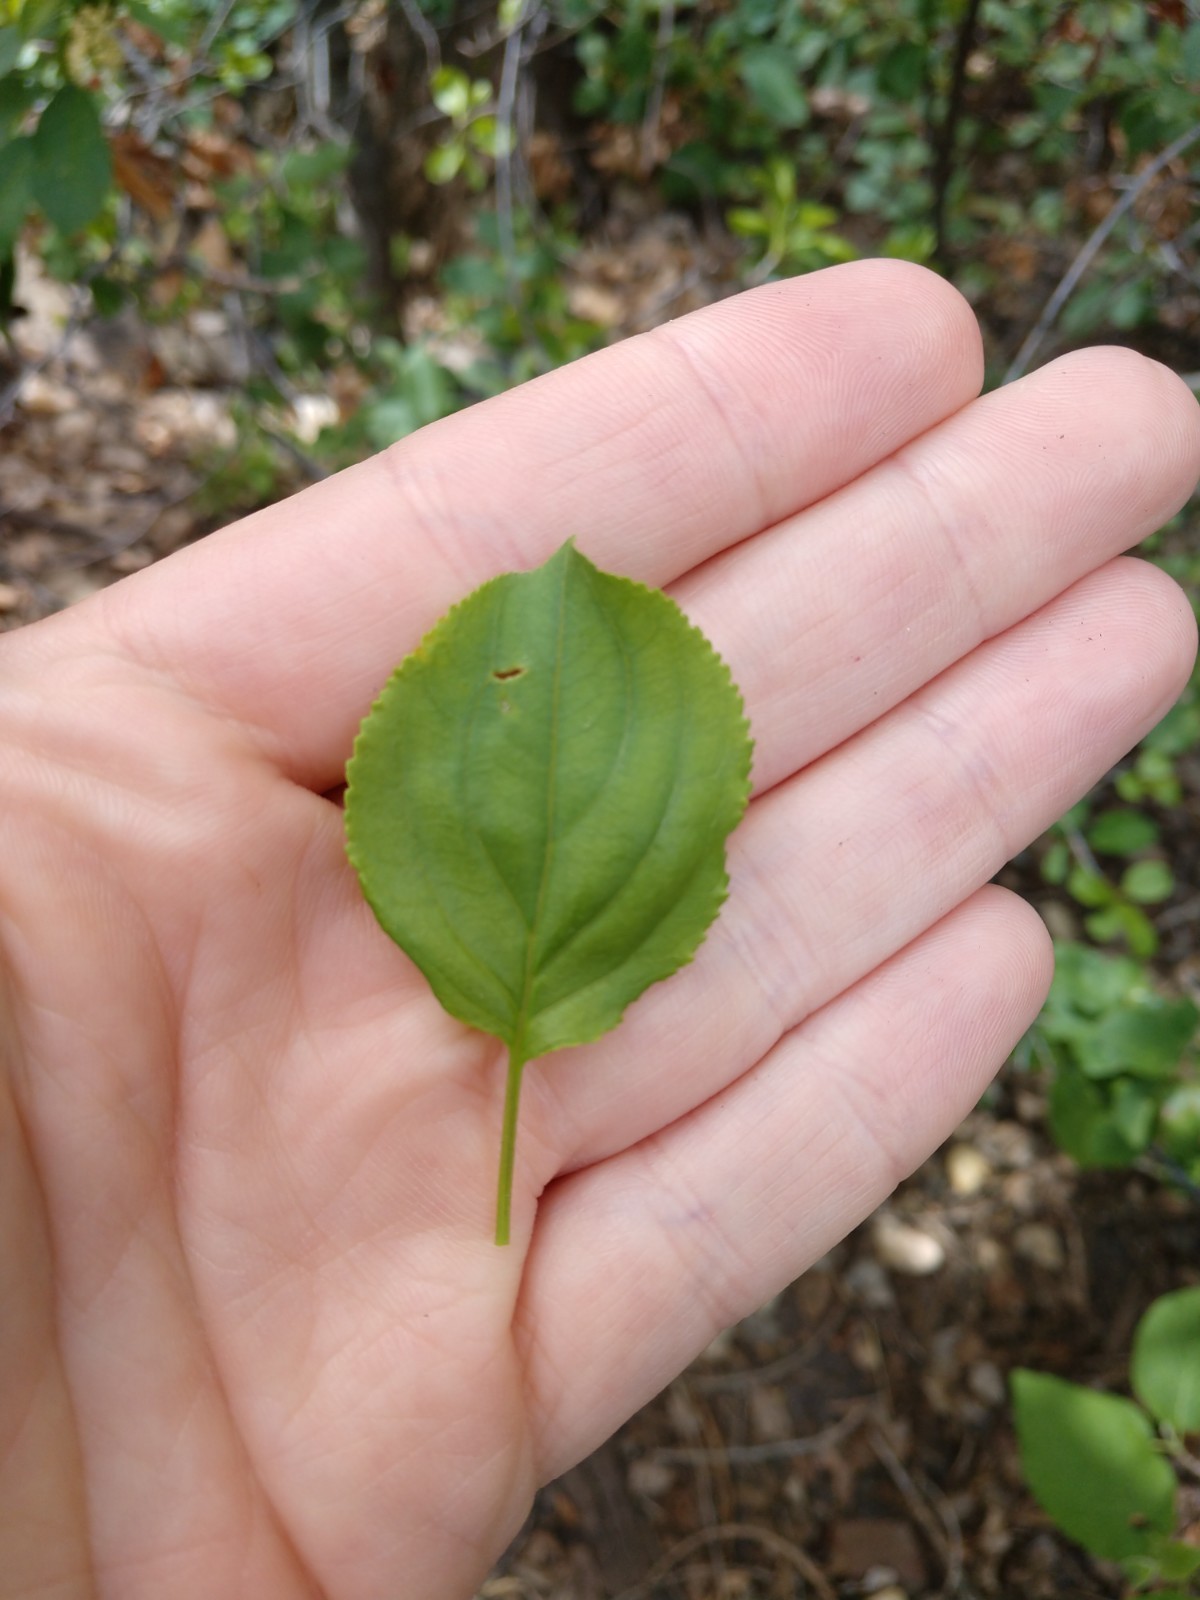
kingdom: Plantae
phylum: Tracheophyta
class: Magnoliopsida
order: Rosales
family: Rhamnaceae
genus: Rhamnus
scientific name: Rhamnus cathartica
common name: Common buckthorn
